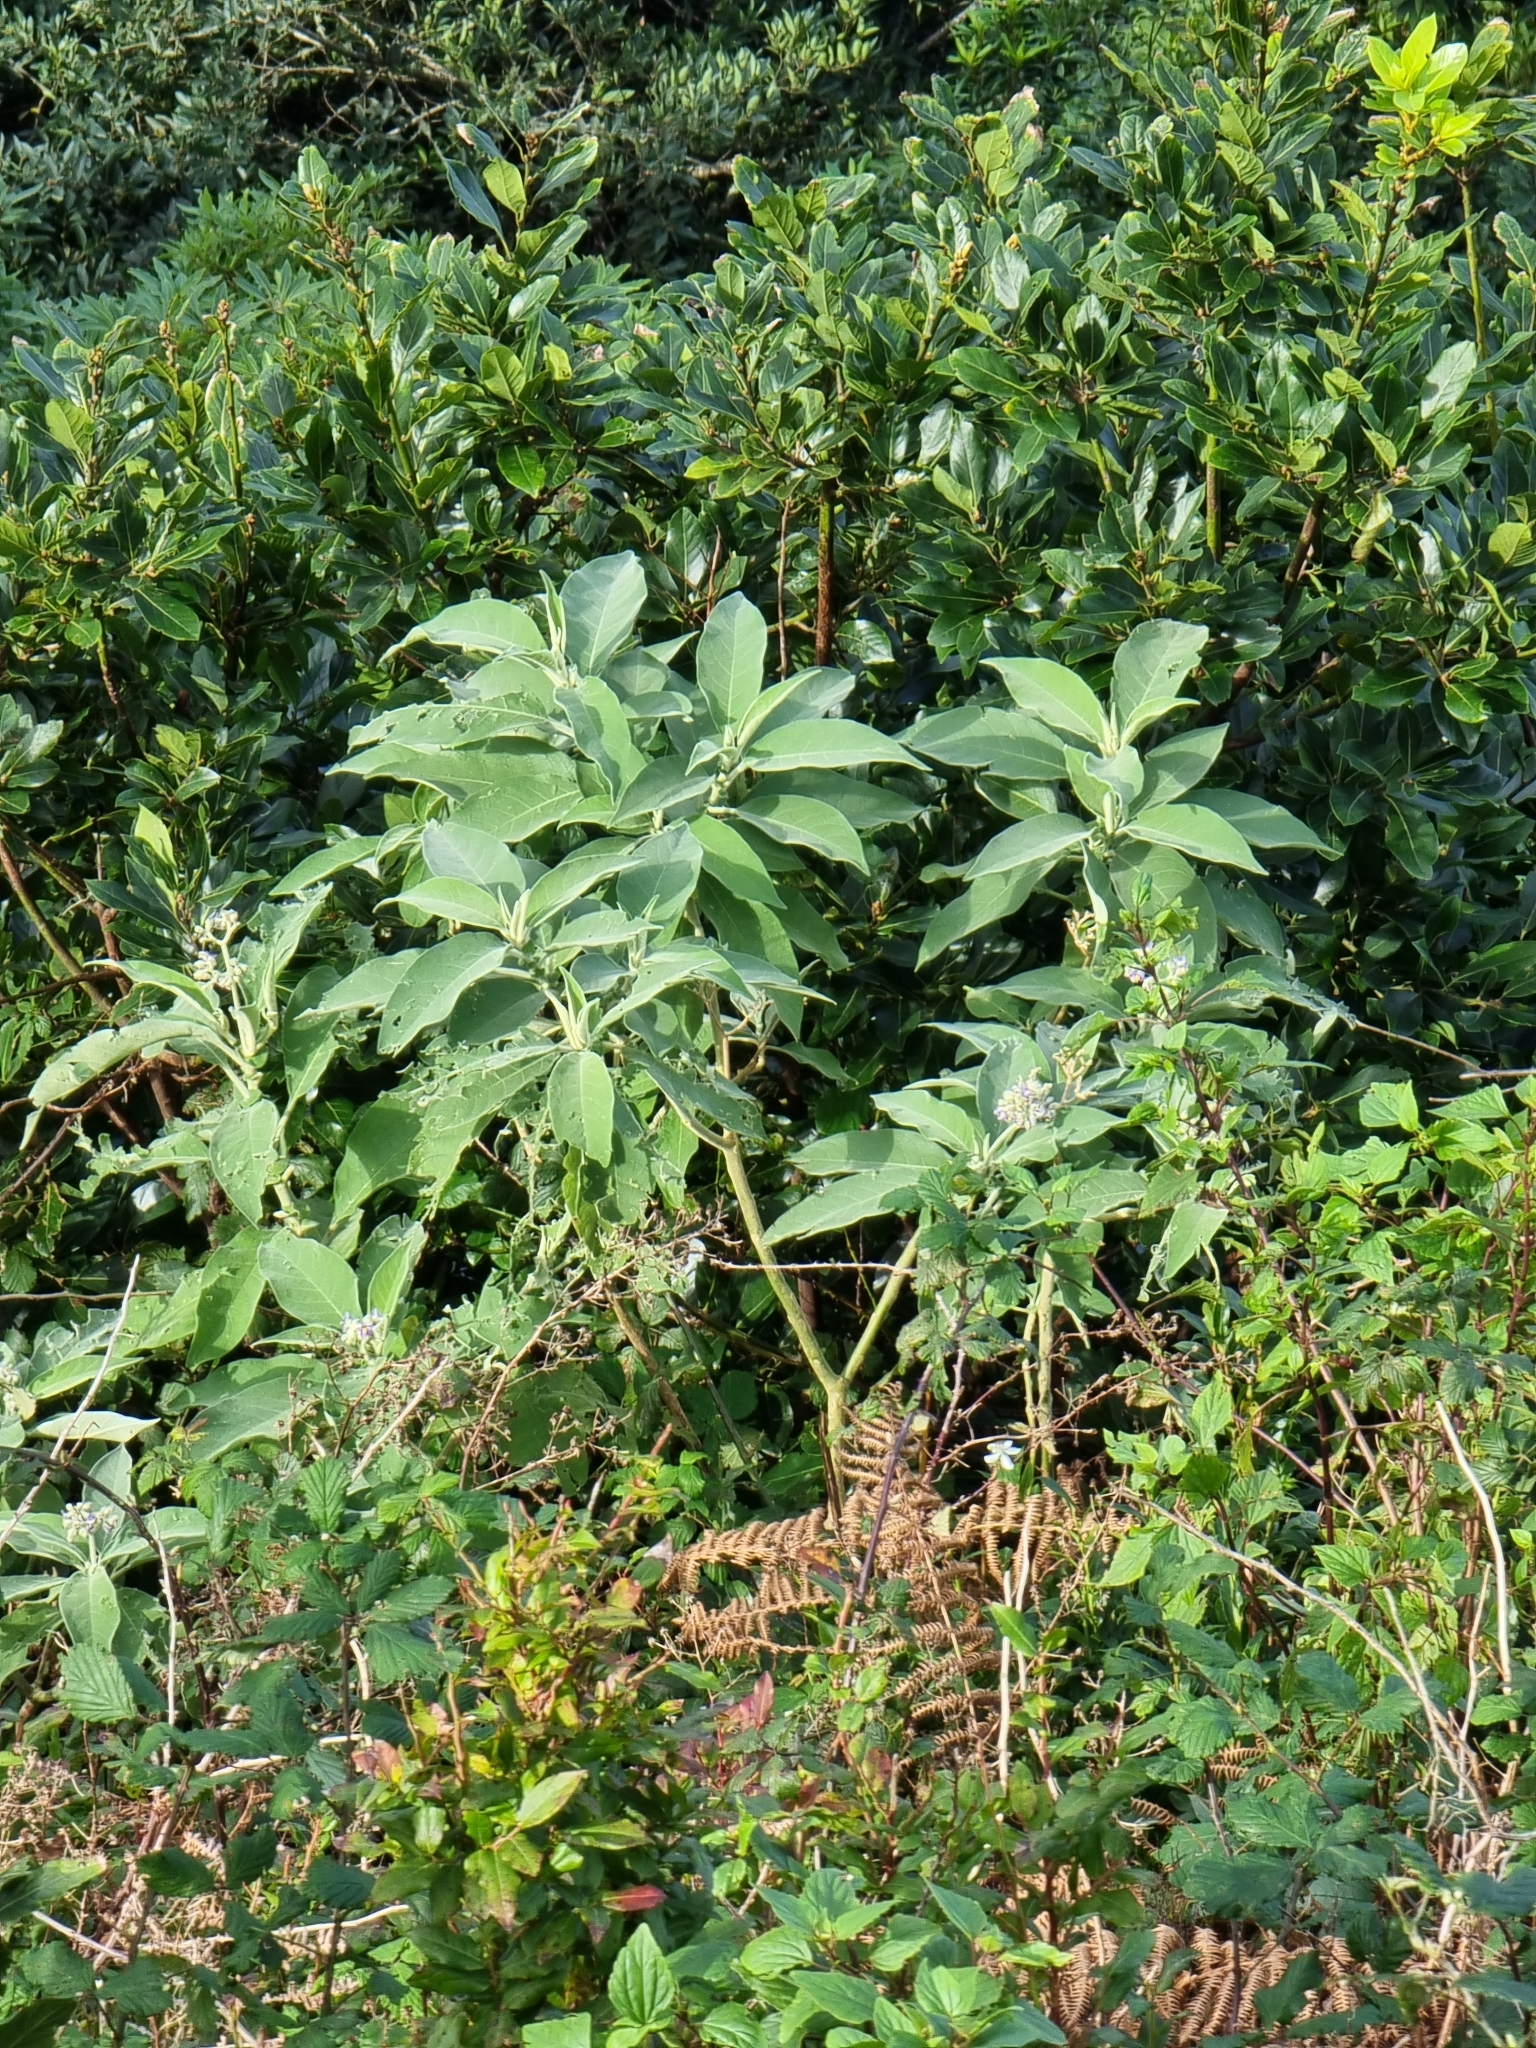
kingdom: Plantae
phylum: Tracheophyta
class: Magnoliopsida
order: Solanales
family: Solanaceae
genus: Solanum
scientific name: Solanum mauritianum
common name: Earleaf nightshade
